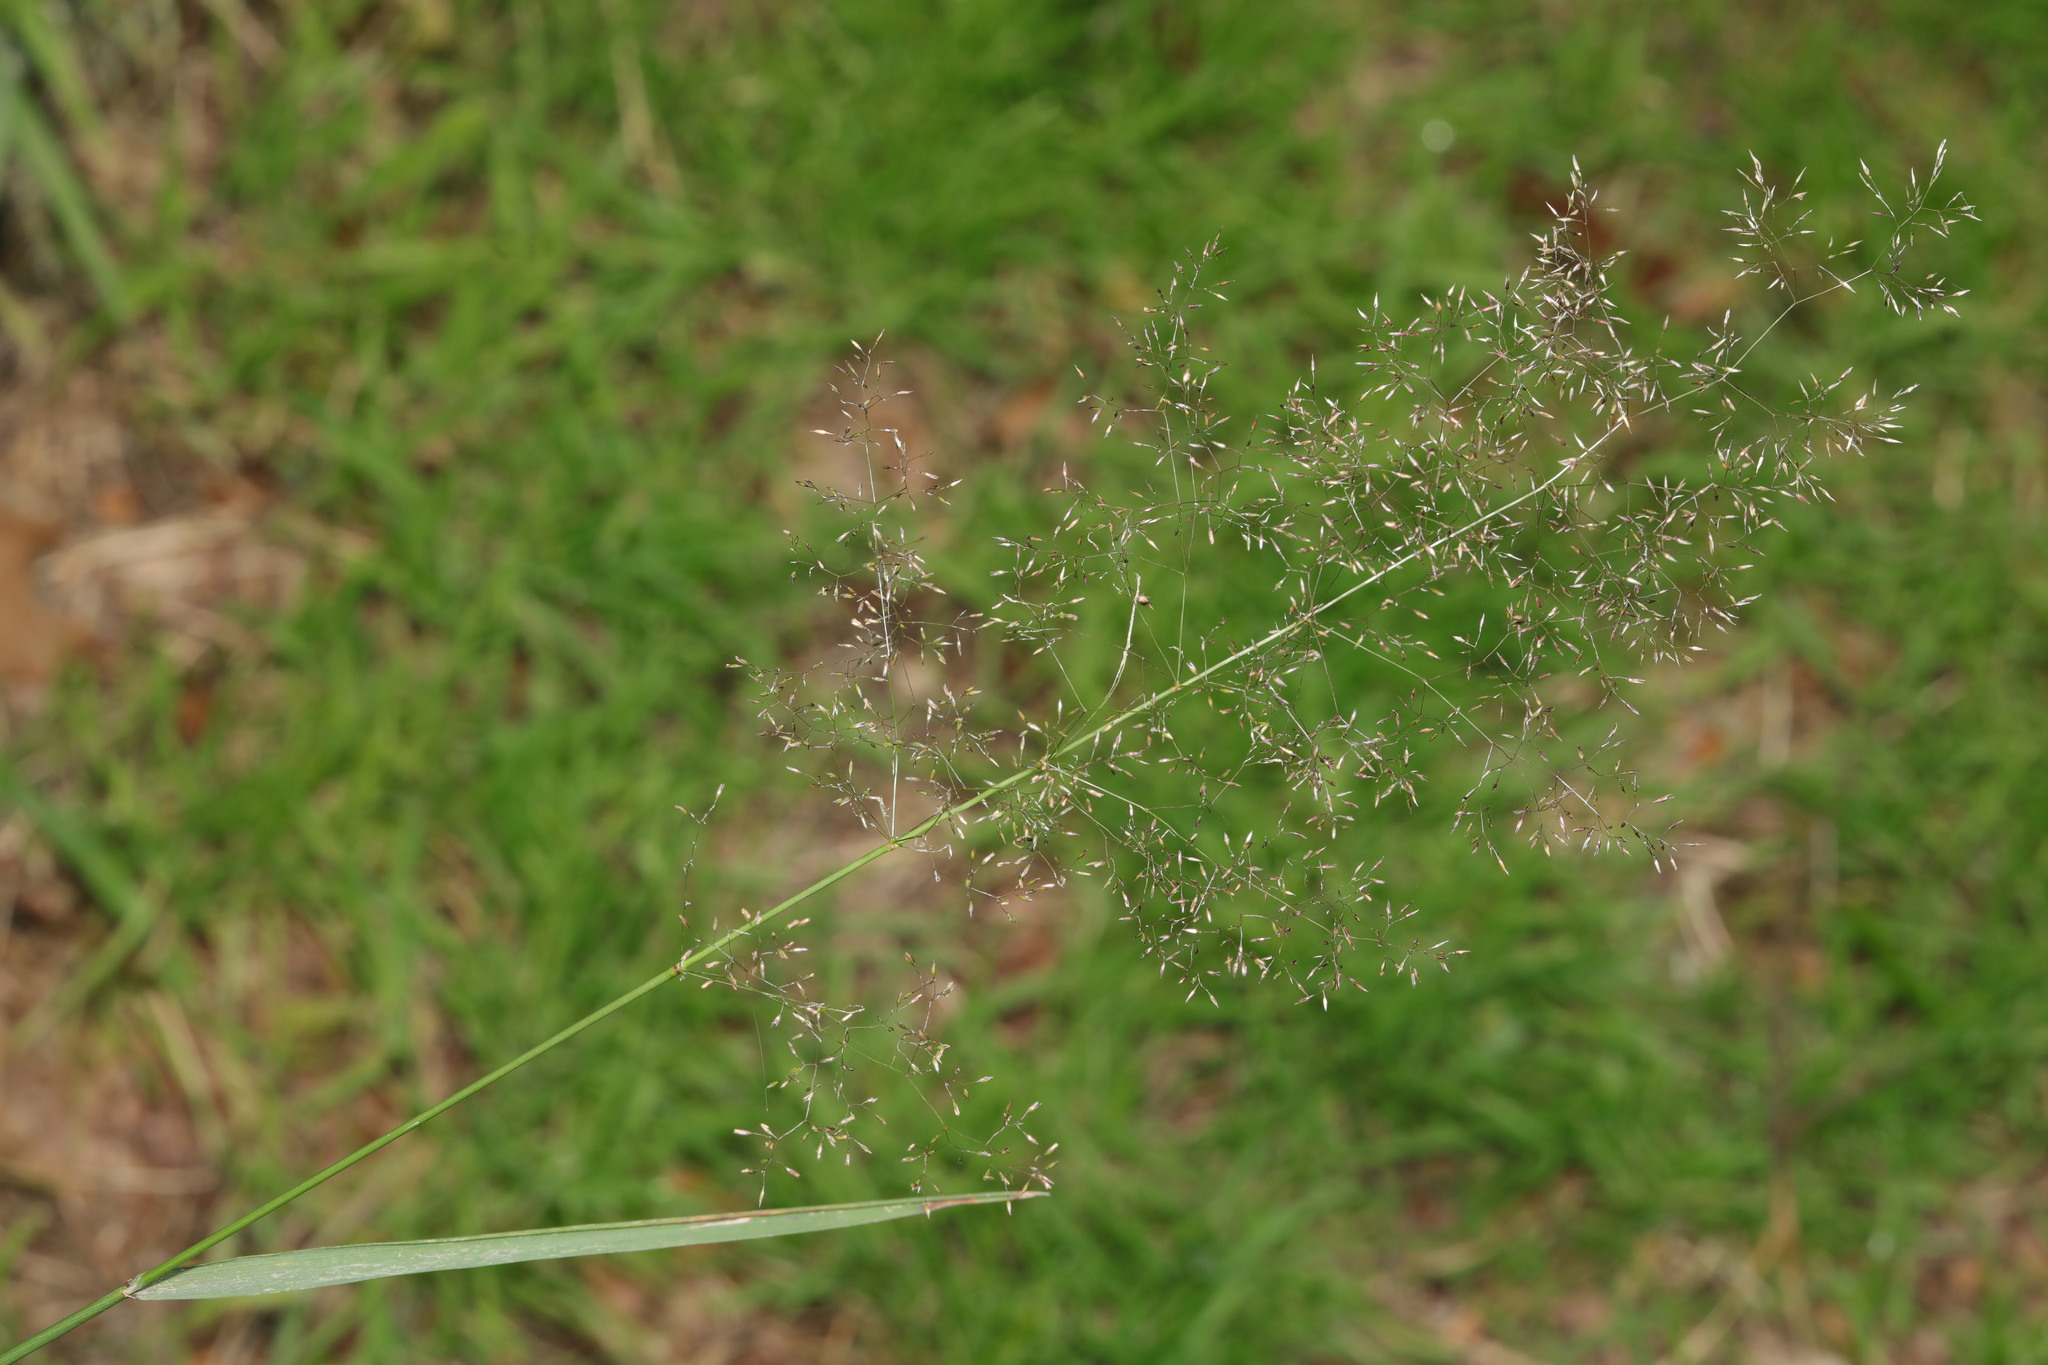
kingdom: Plantae
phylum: Tracheophyta
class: Liliopsida
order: Poales
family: Poaceae
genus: Agrostis
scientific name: Agrostis capillaris
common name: Colonial bentgrass
